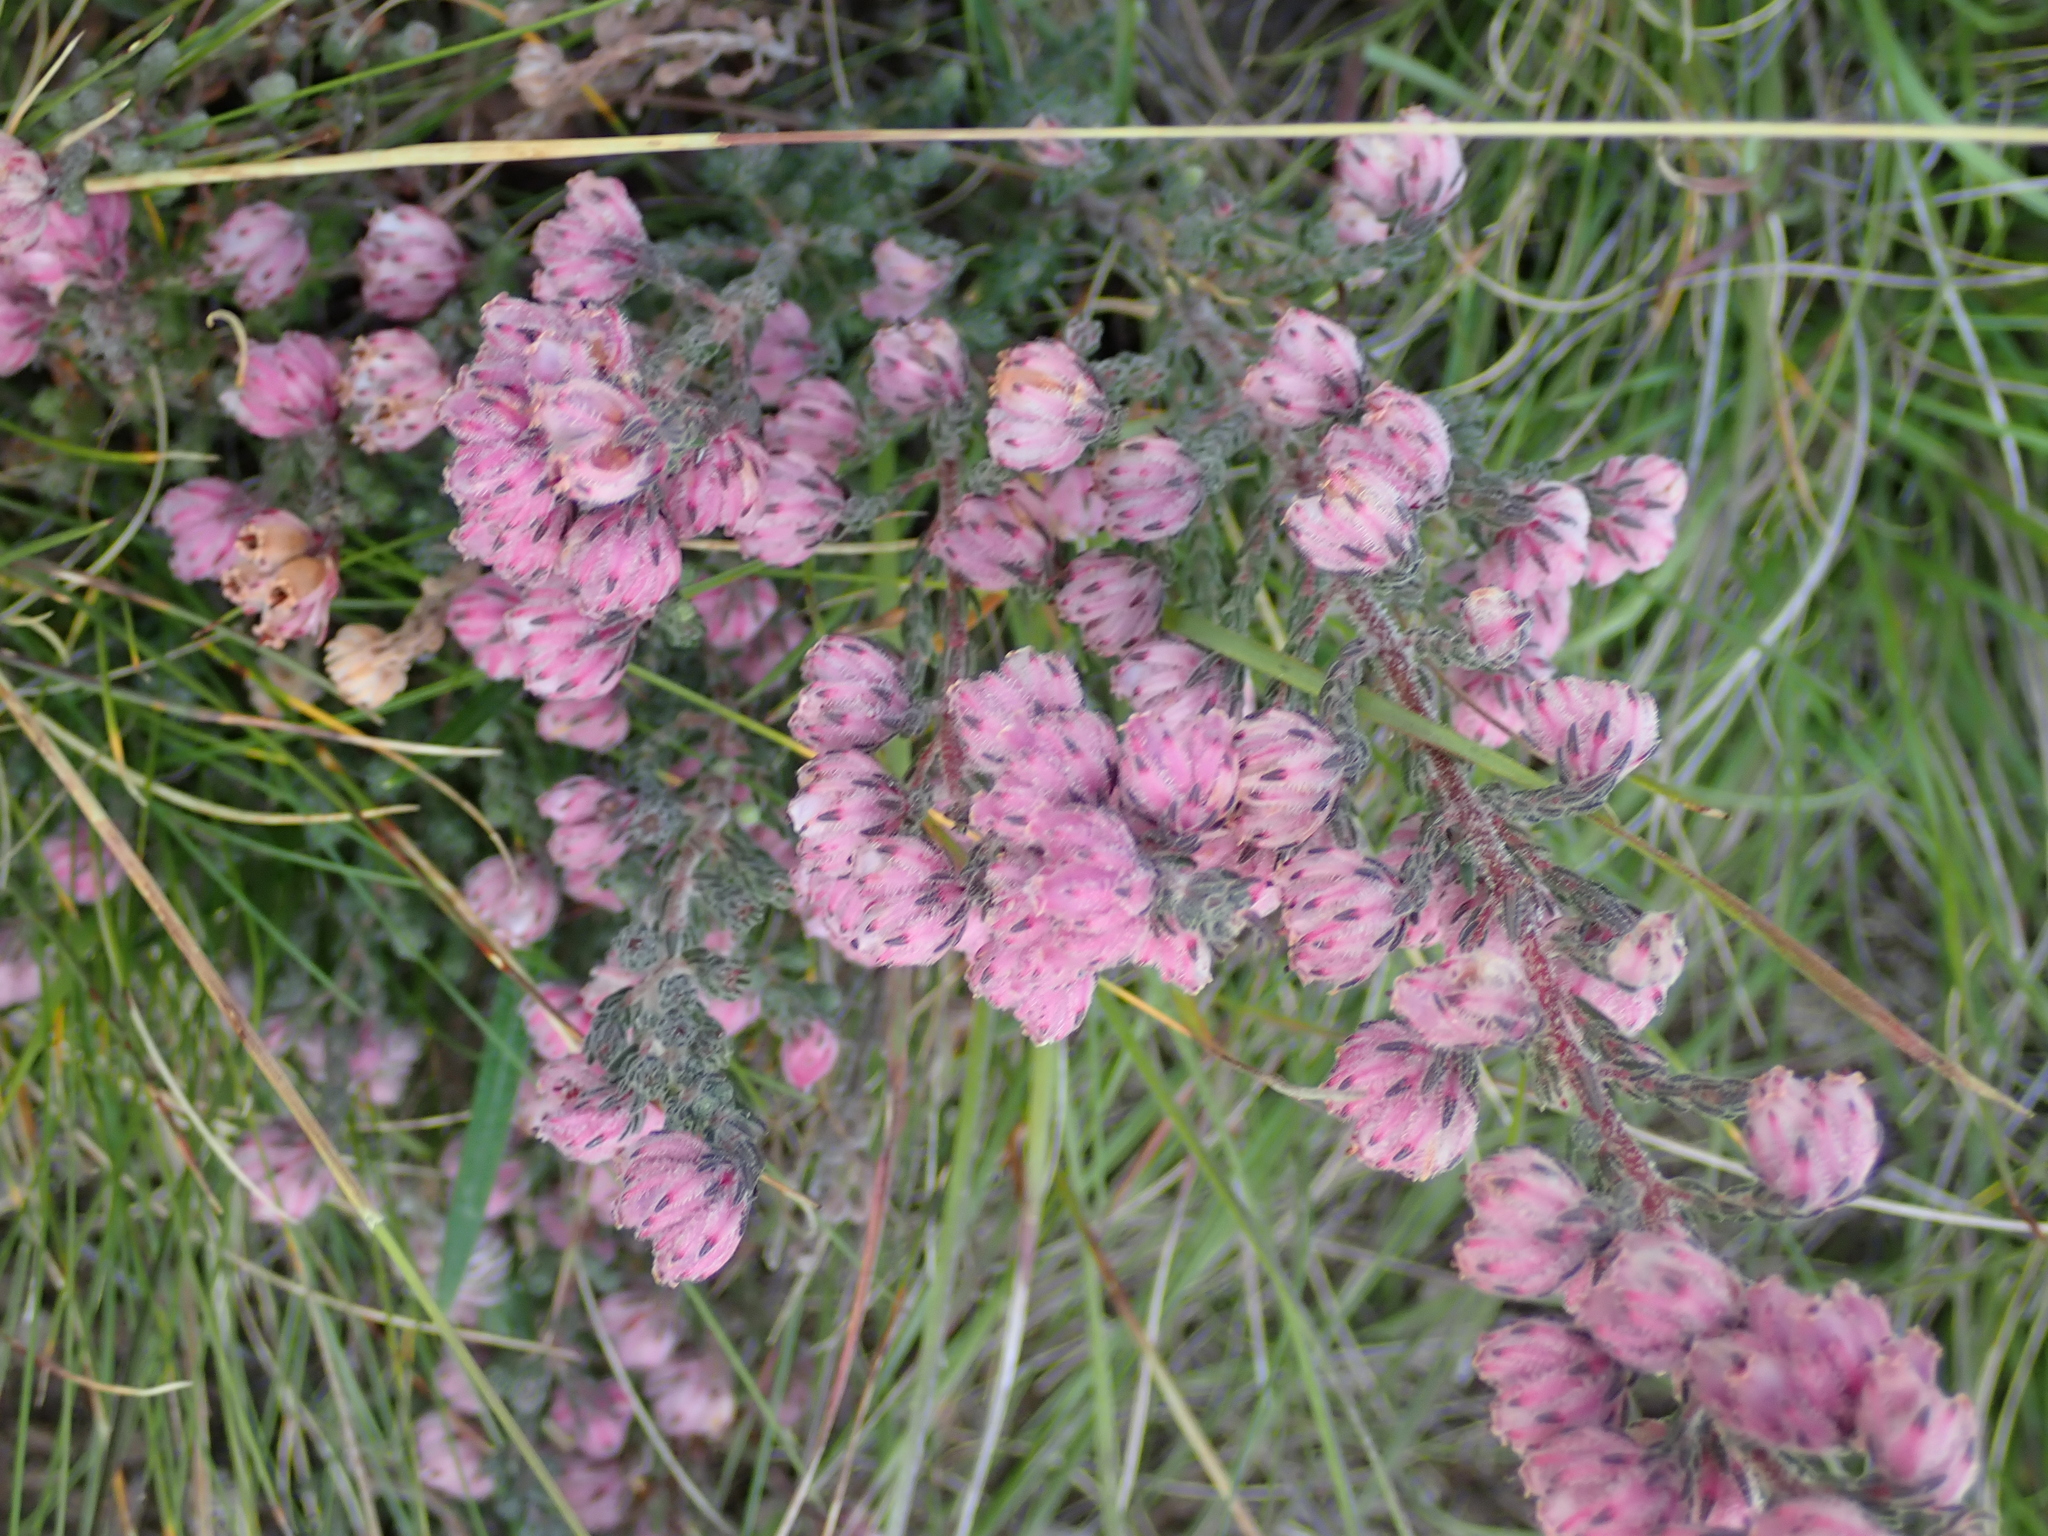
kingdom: Plantae
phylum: Tracheophyta
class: Magnoliopsida
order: Ericales
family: Ericaceae
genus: Erica
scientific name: Erica cooperi
